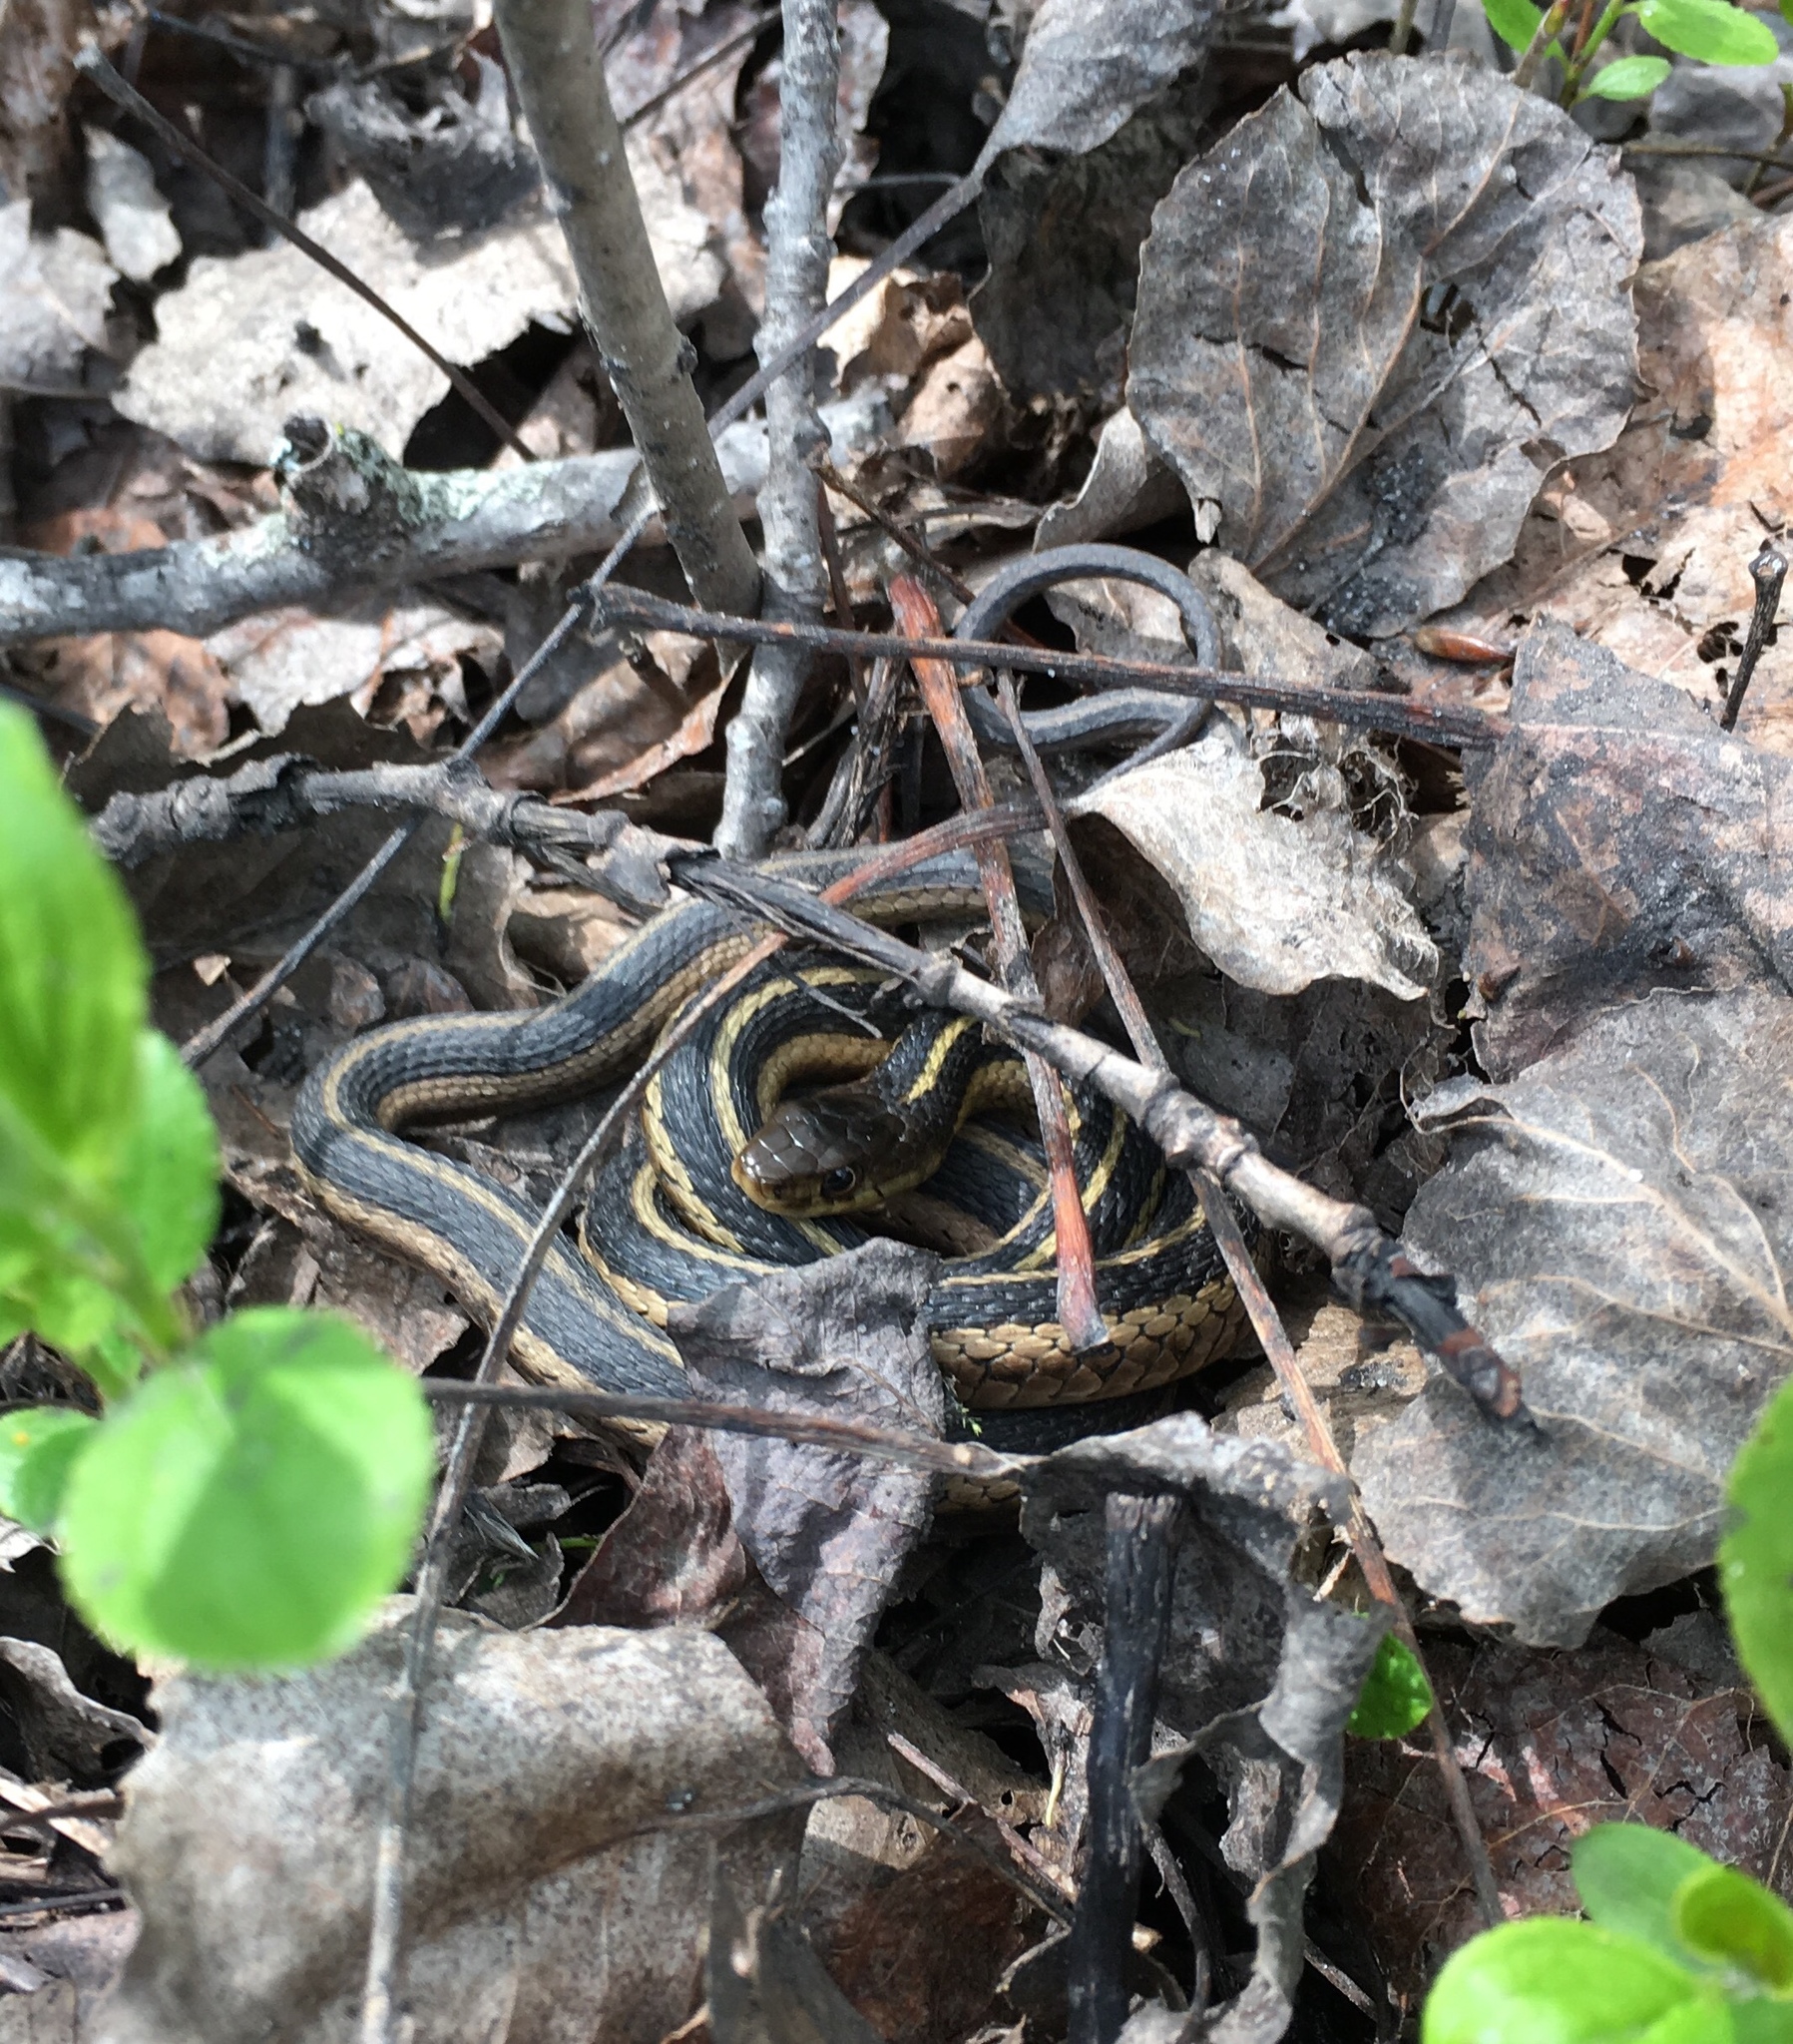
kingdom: Animalia
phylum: Chordata
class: Squamata
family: Colubridae
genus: Thamnophis
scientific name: Thamnophis sirtalis
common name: Common garter snake
